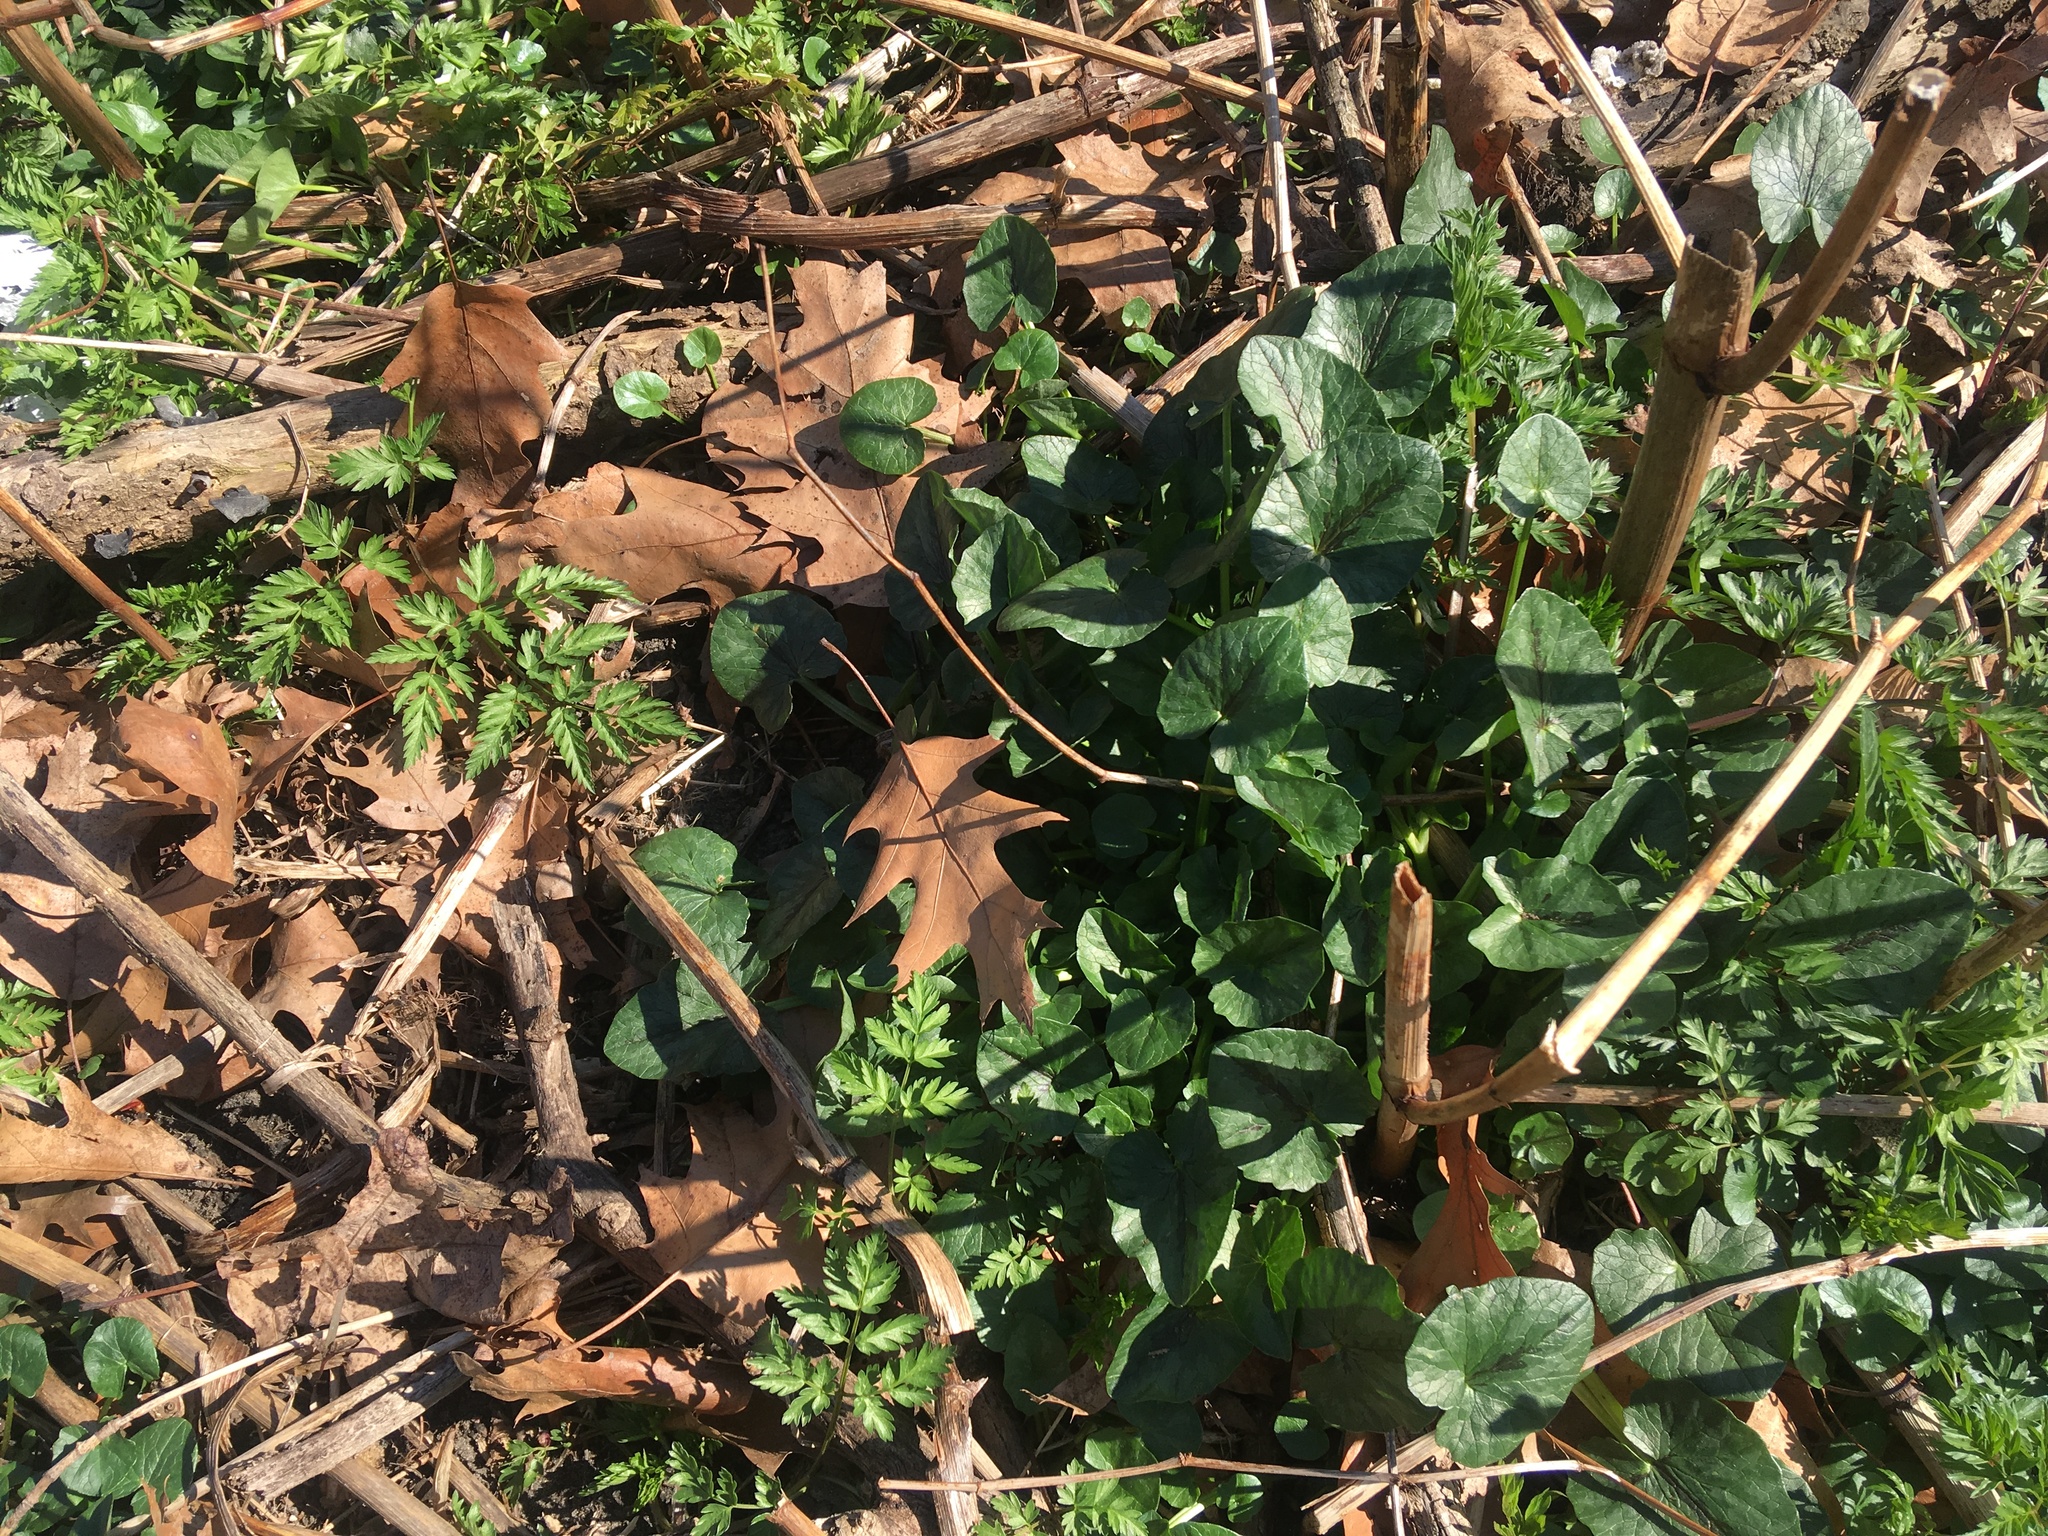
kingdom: Plantae
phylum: Tracheophyta
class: Magnoliopsida
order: Ranunculales
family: Ranunculaceae
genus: Ficaria
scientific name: Ficaria verna
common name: Lesser celandine
